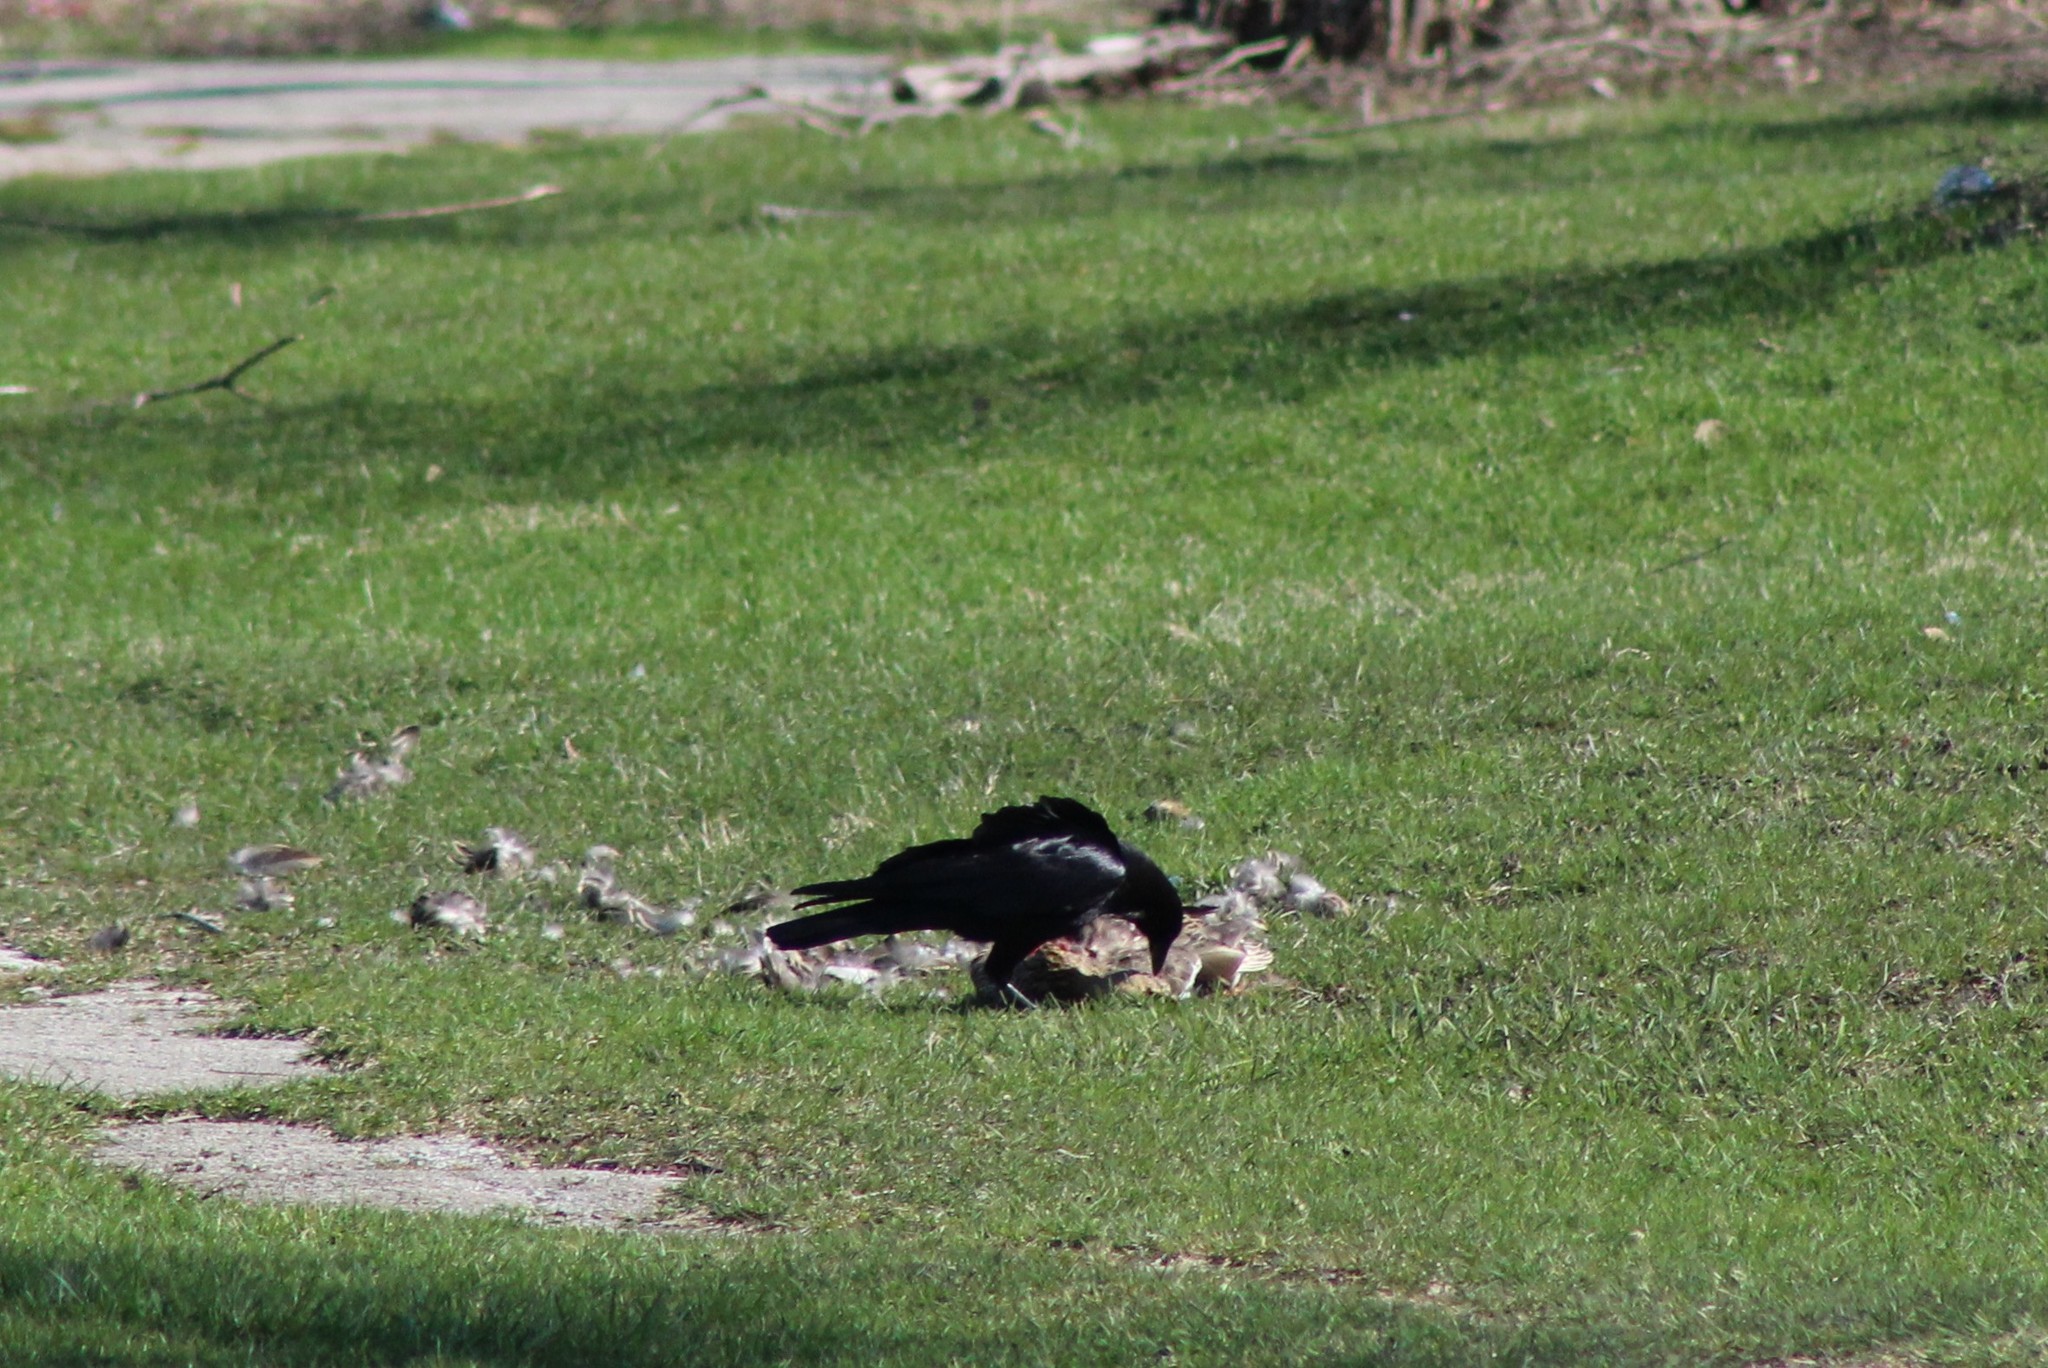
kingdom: Animalia
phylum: Chordata
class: Aves
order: Passeriformes
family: Corvidae
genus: Corvus
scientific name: Corvus brachyrhynchos
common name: American crow
